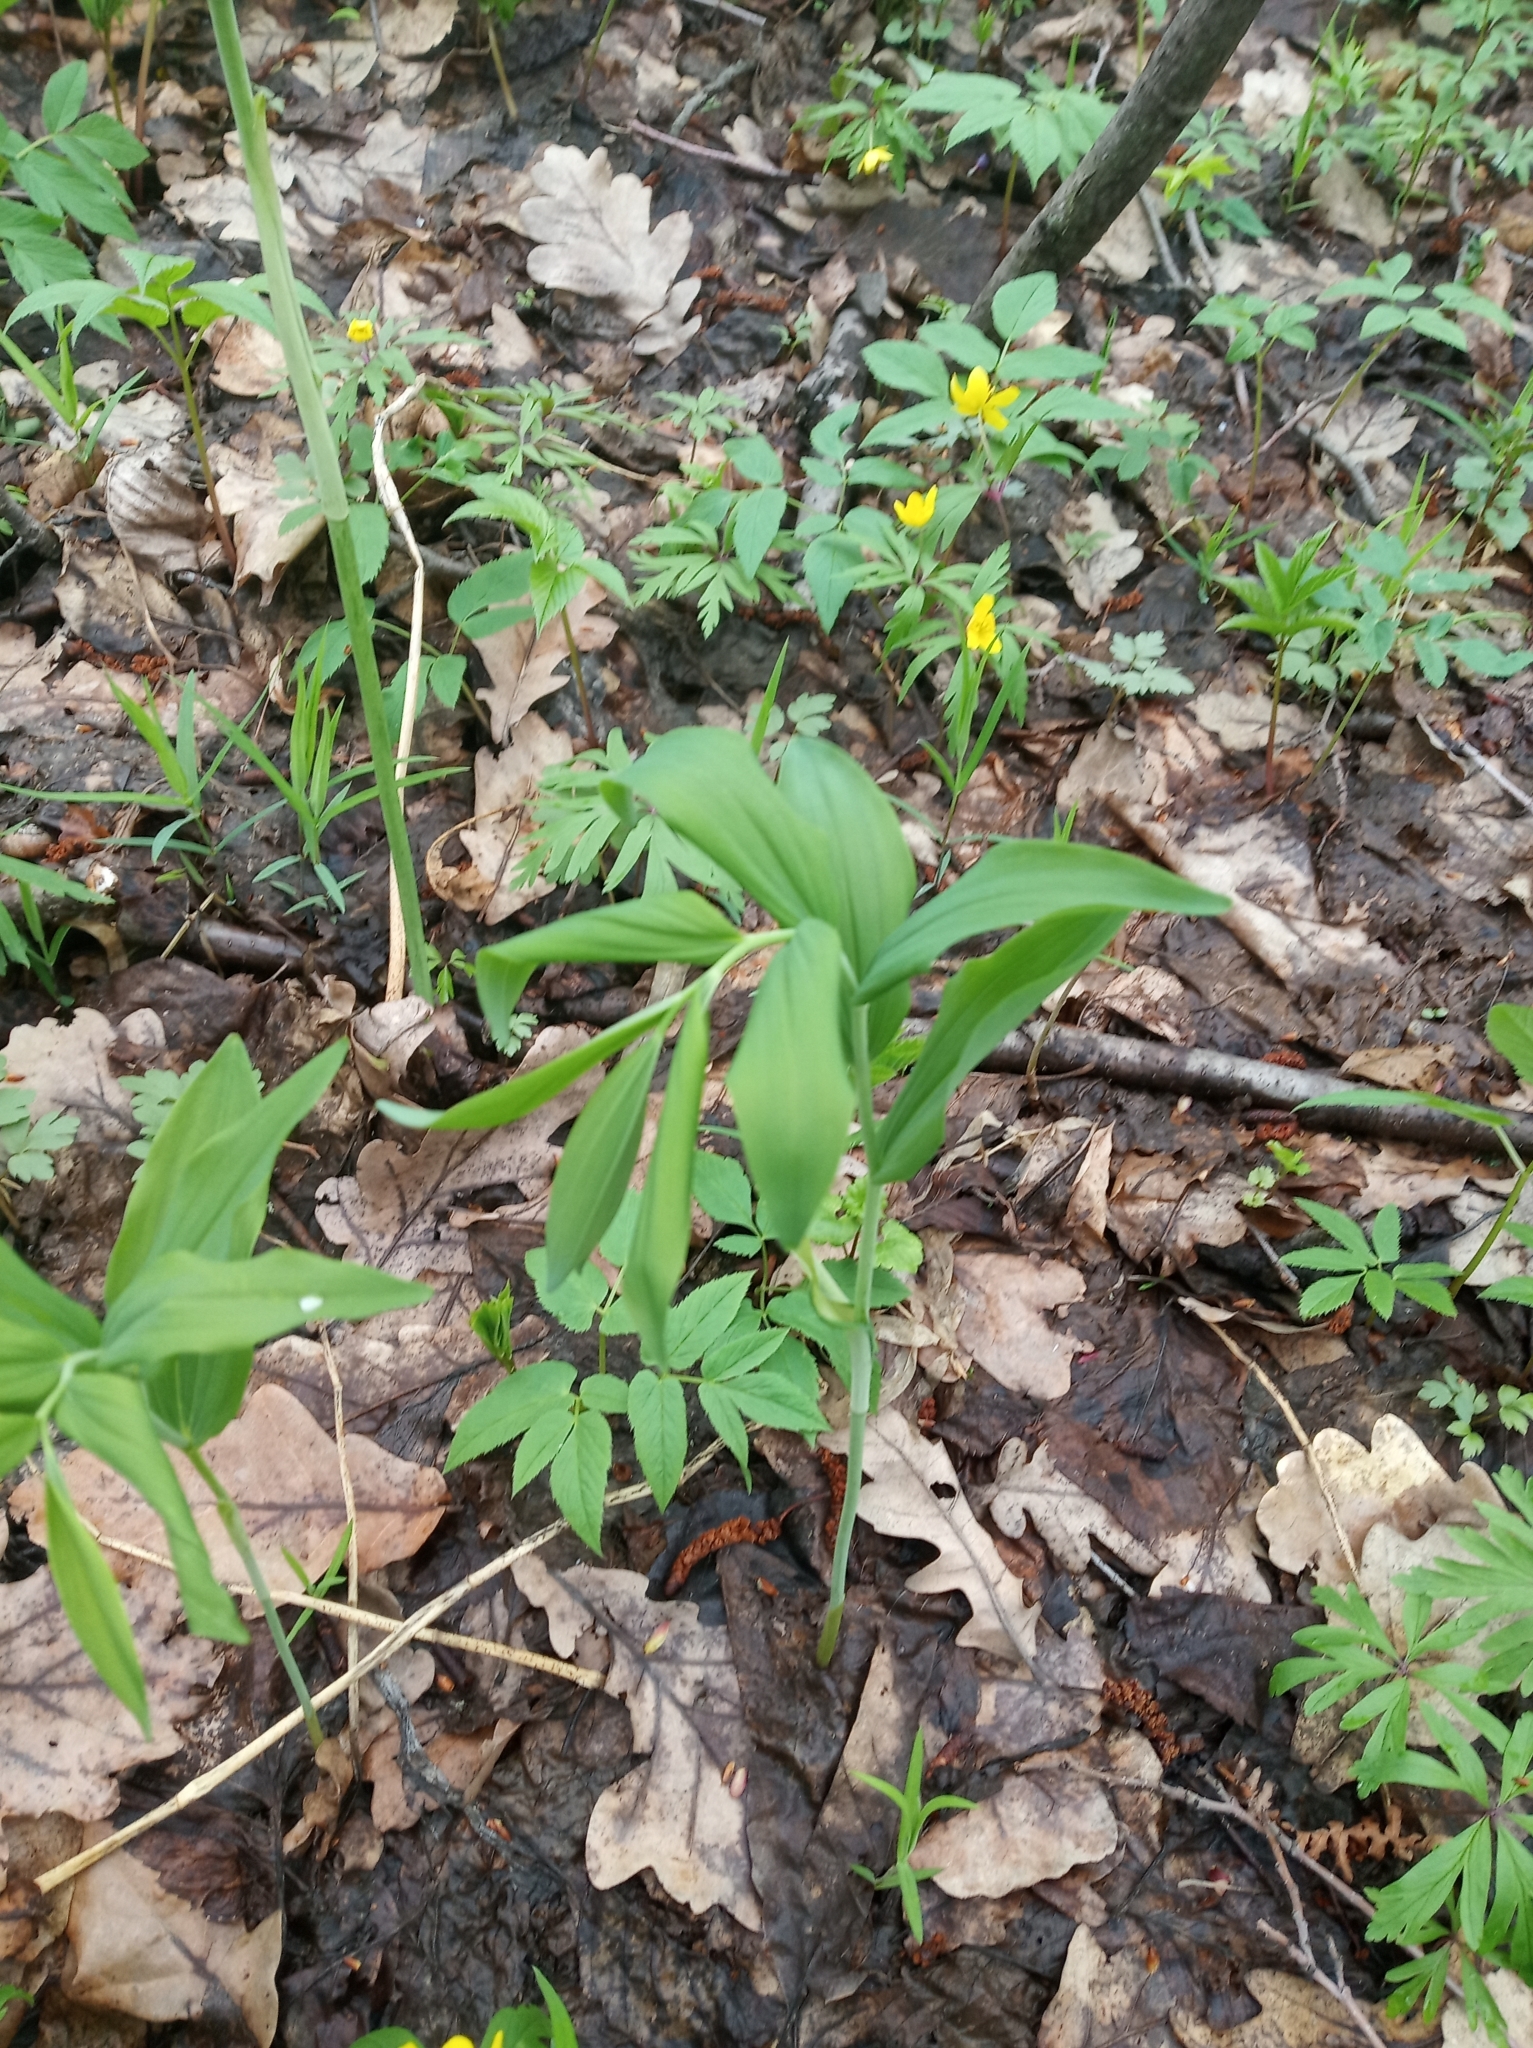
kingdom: Plantae
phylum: Tracheophyta
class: Liliopsida
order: Asparagales
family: Asparagaceae
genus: Polygonatum
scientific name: Polygonatum multiflorum
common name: Solomon's-seal
